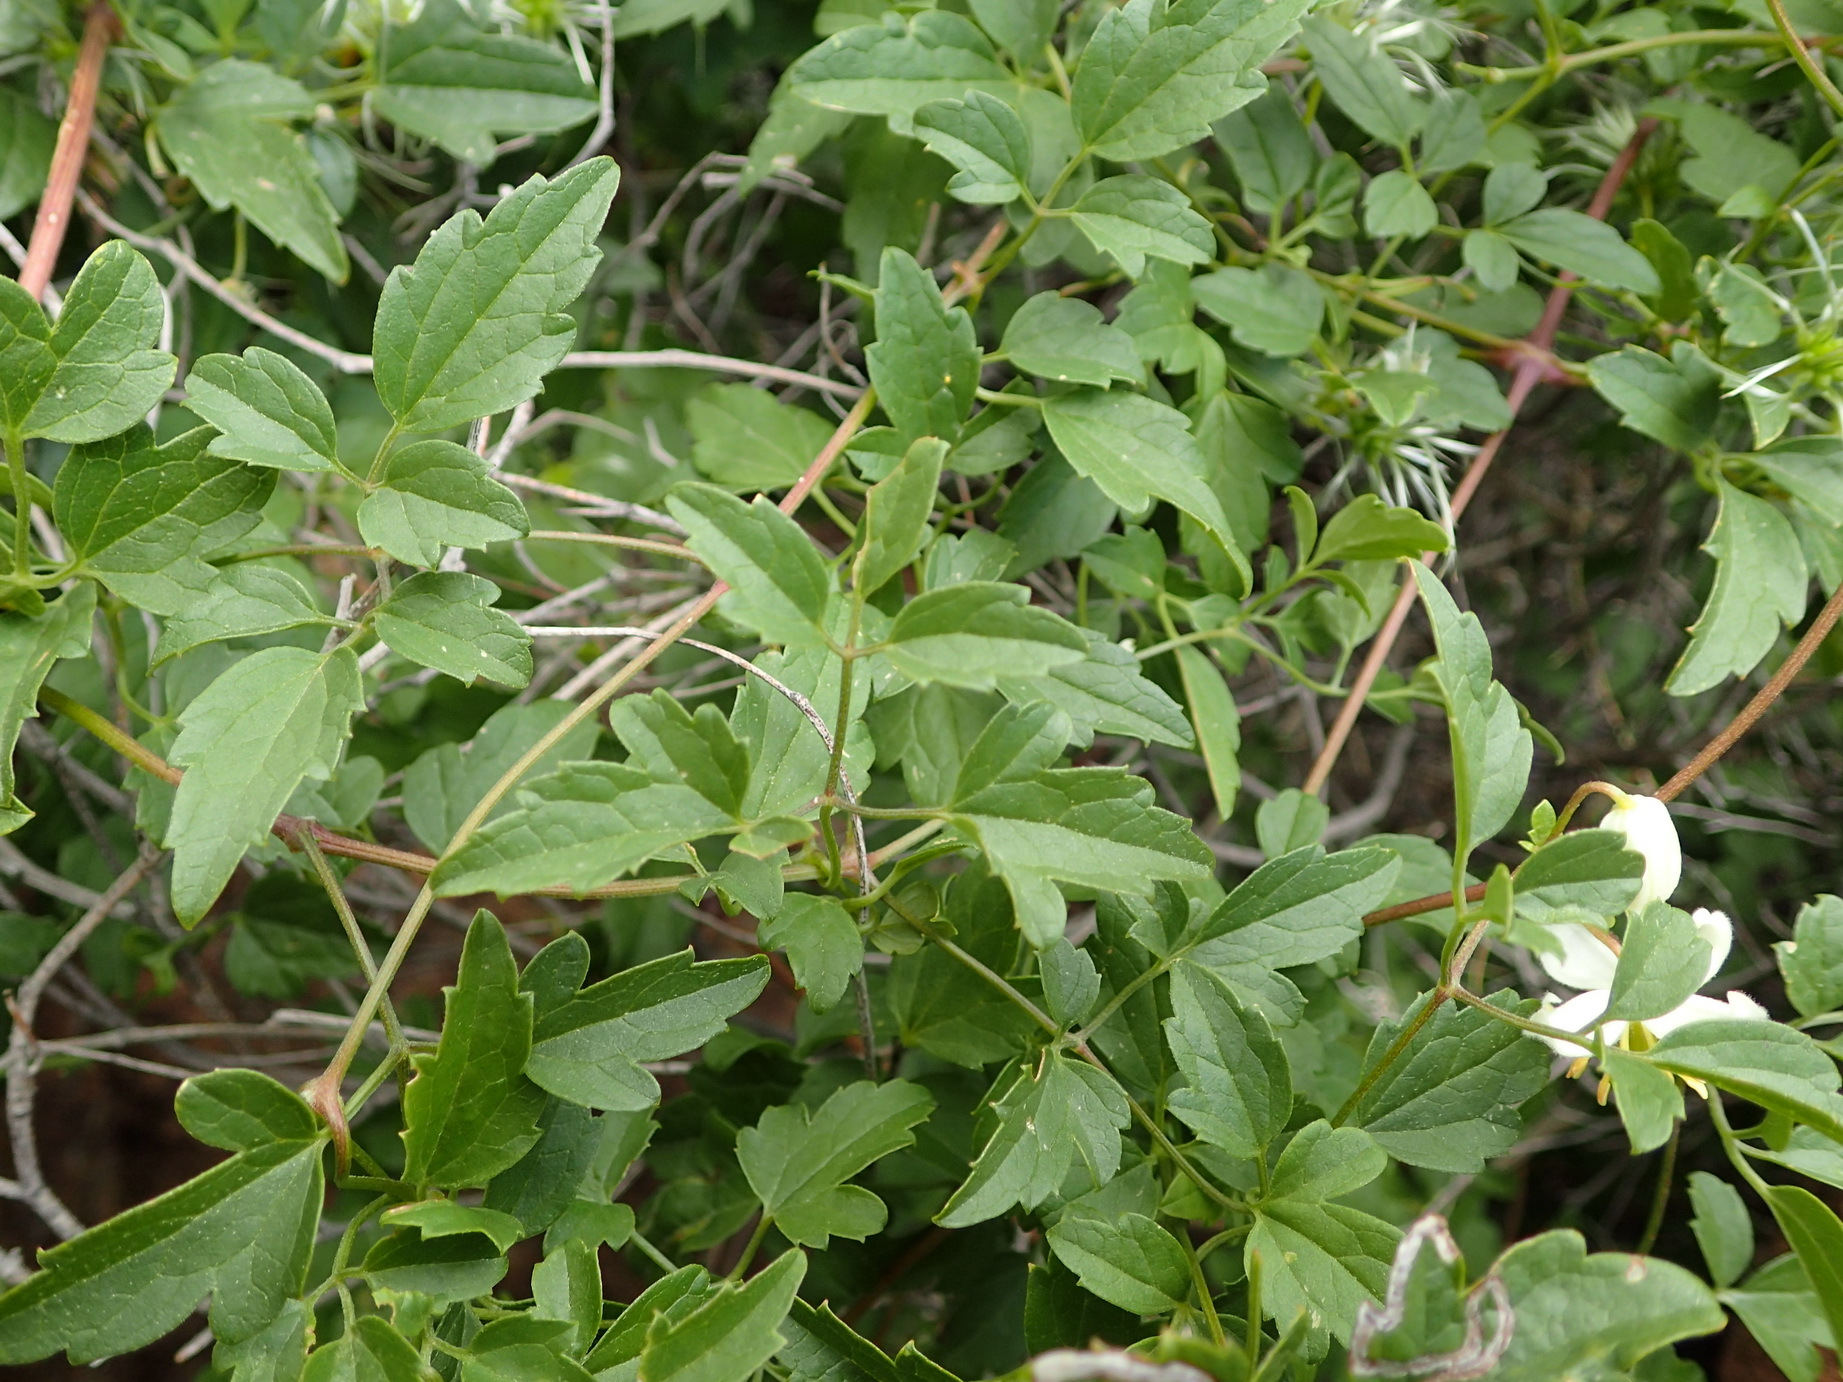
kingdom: Plantae
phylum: Tracheophyta
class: Magnoliopsida
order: Ranunculales
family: Ranunculaceae
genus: Clematis
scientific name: Clematis brachiata
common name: Traveler's-joy
